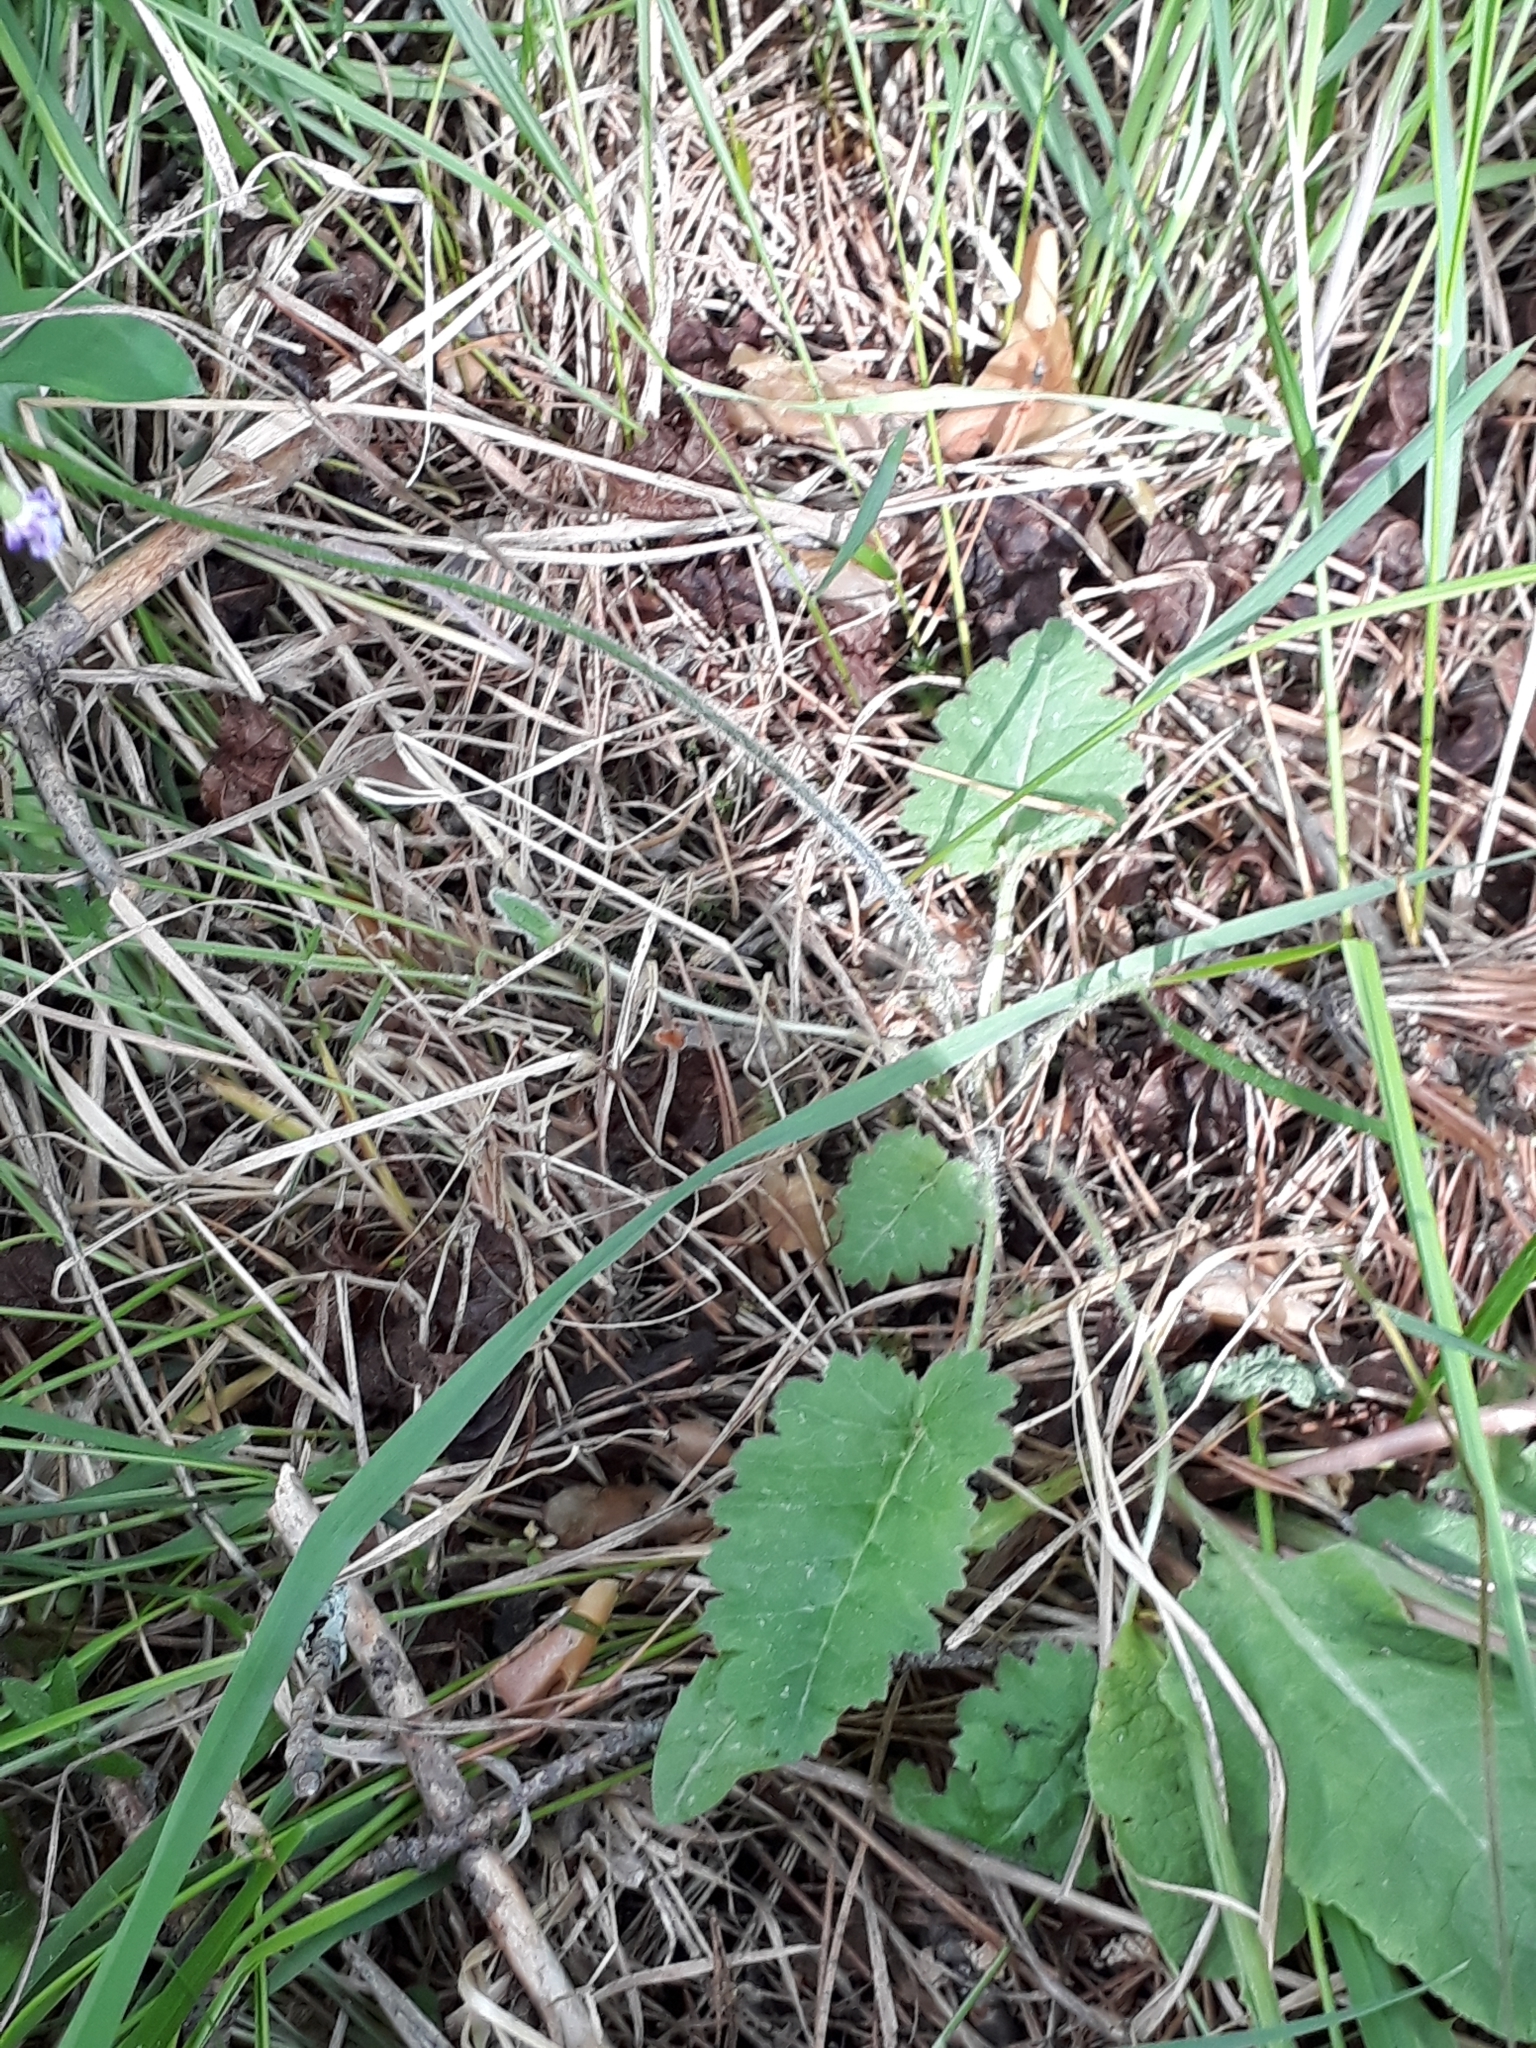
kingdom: Plantae
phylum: Tracheophyta
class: Magnoliopsida
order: Ericales
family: Primulaceae
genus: Primula
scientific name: Primula cortusoides
